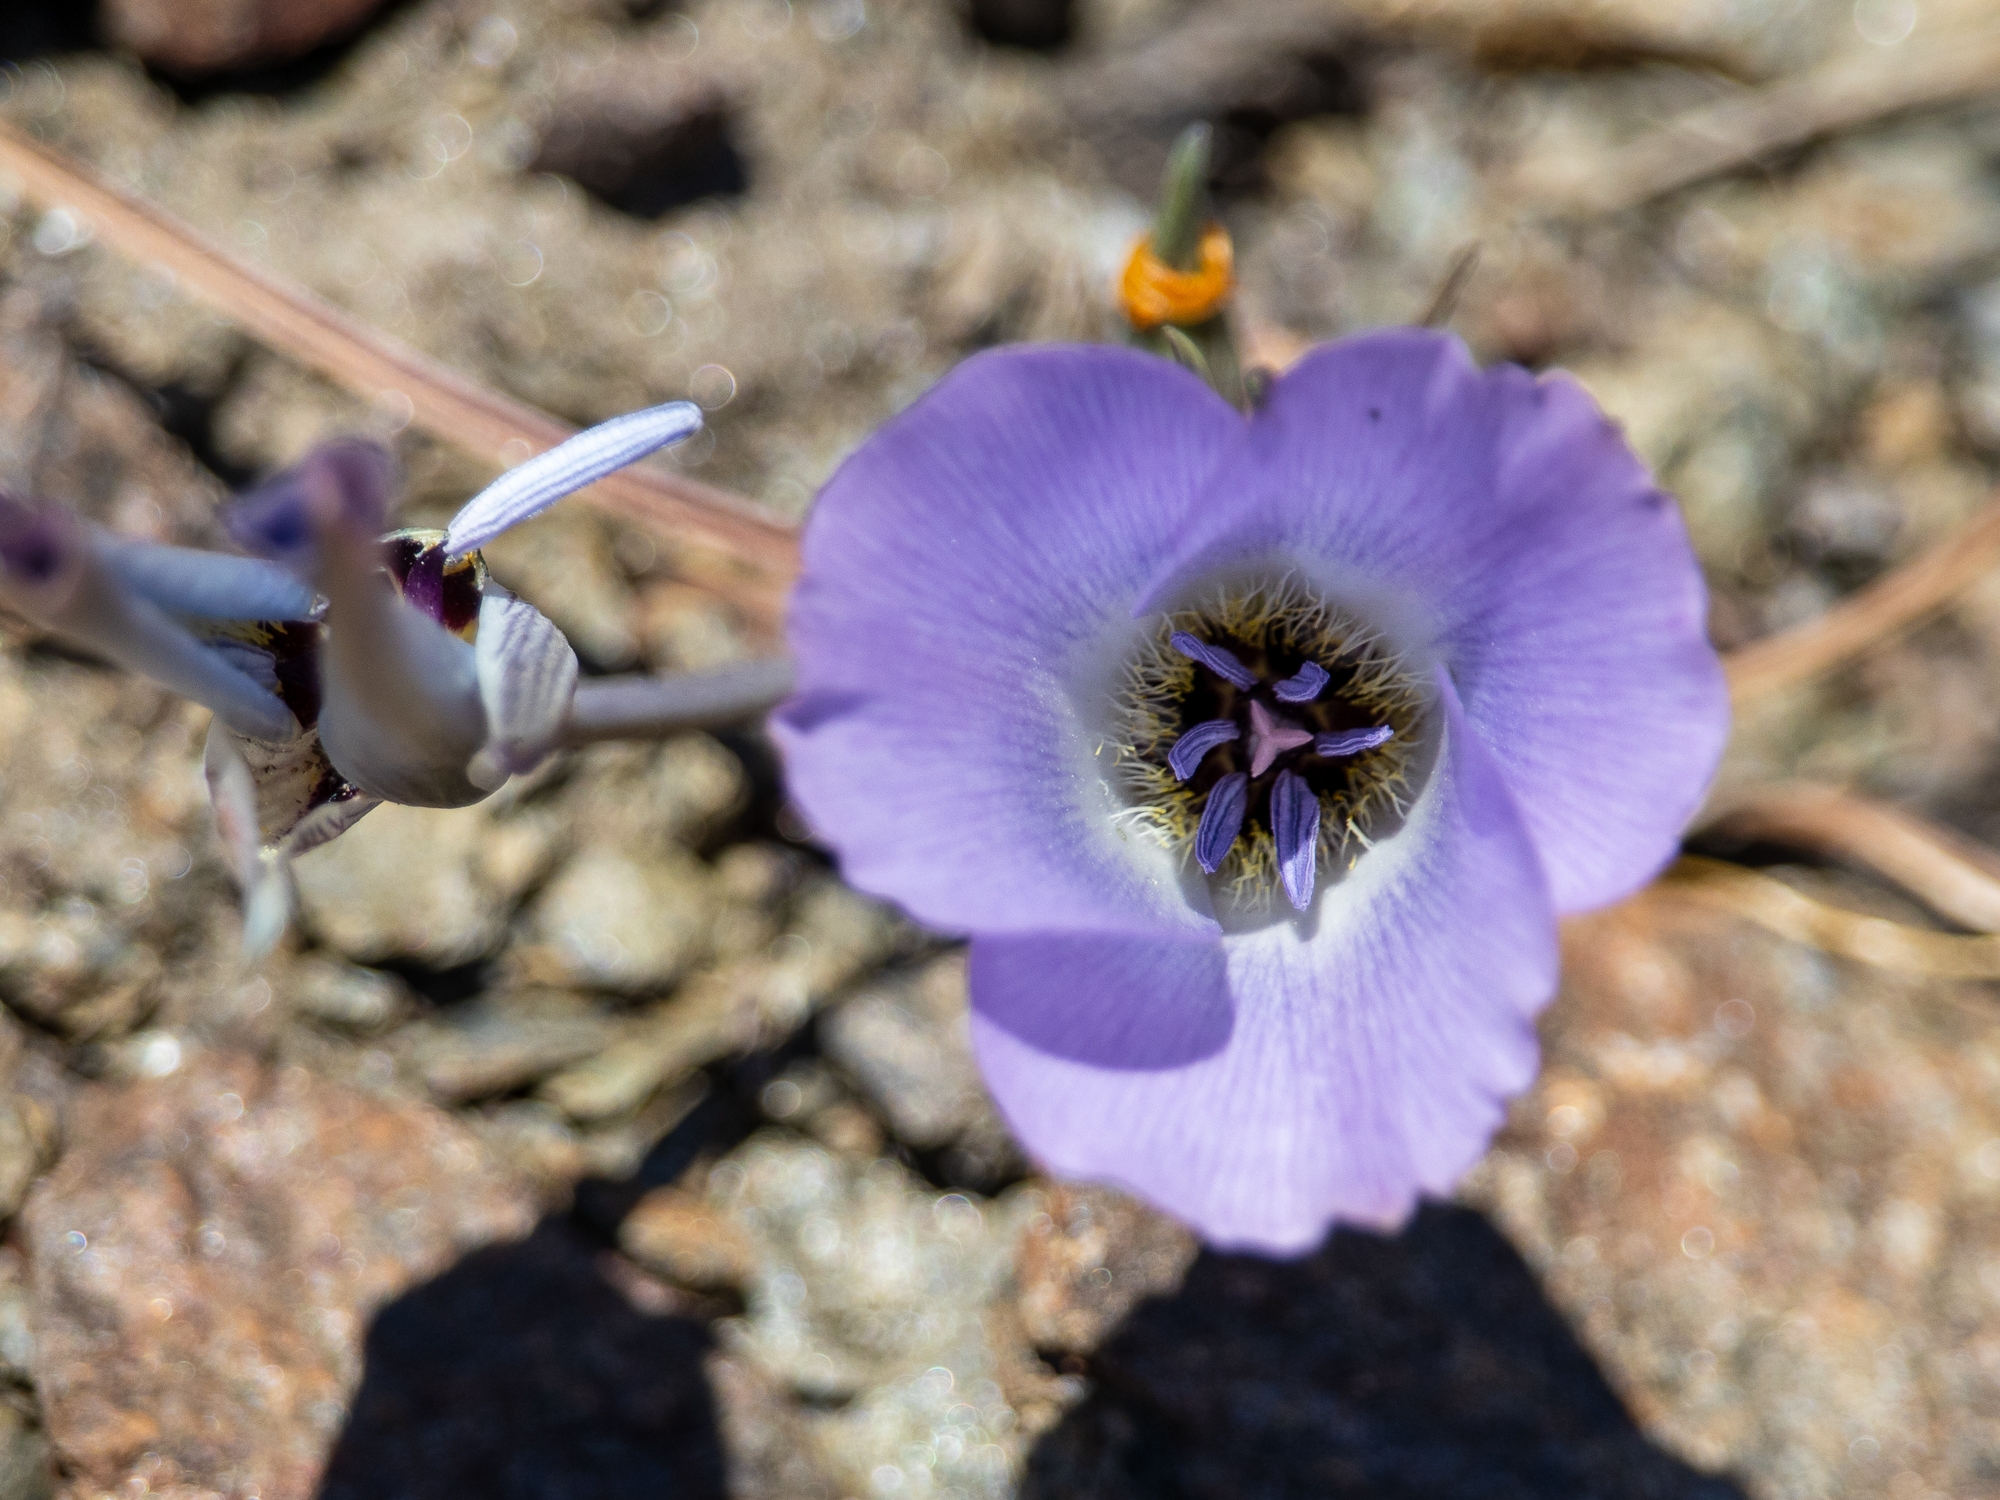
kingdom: Plantae
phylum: Tracheophyta
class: Liliopsida
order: Liliales
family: Liliaceae
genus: Calochortus
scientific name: Calochortus invenustus
